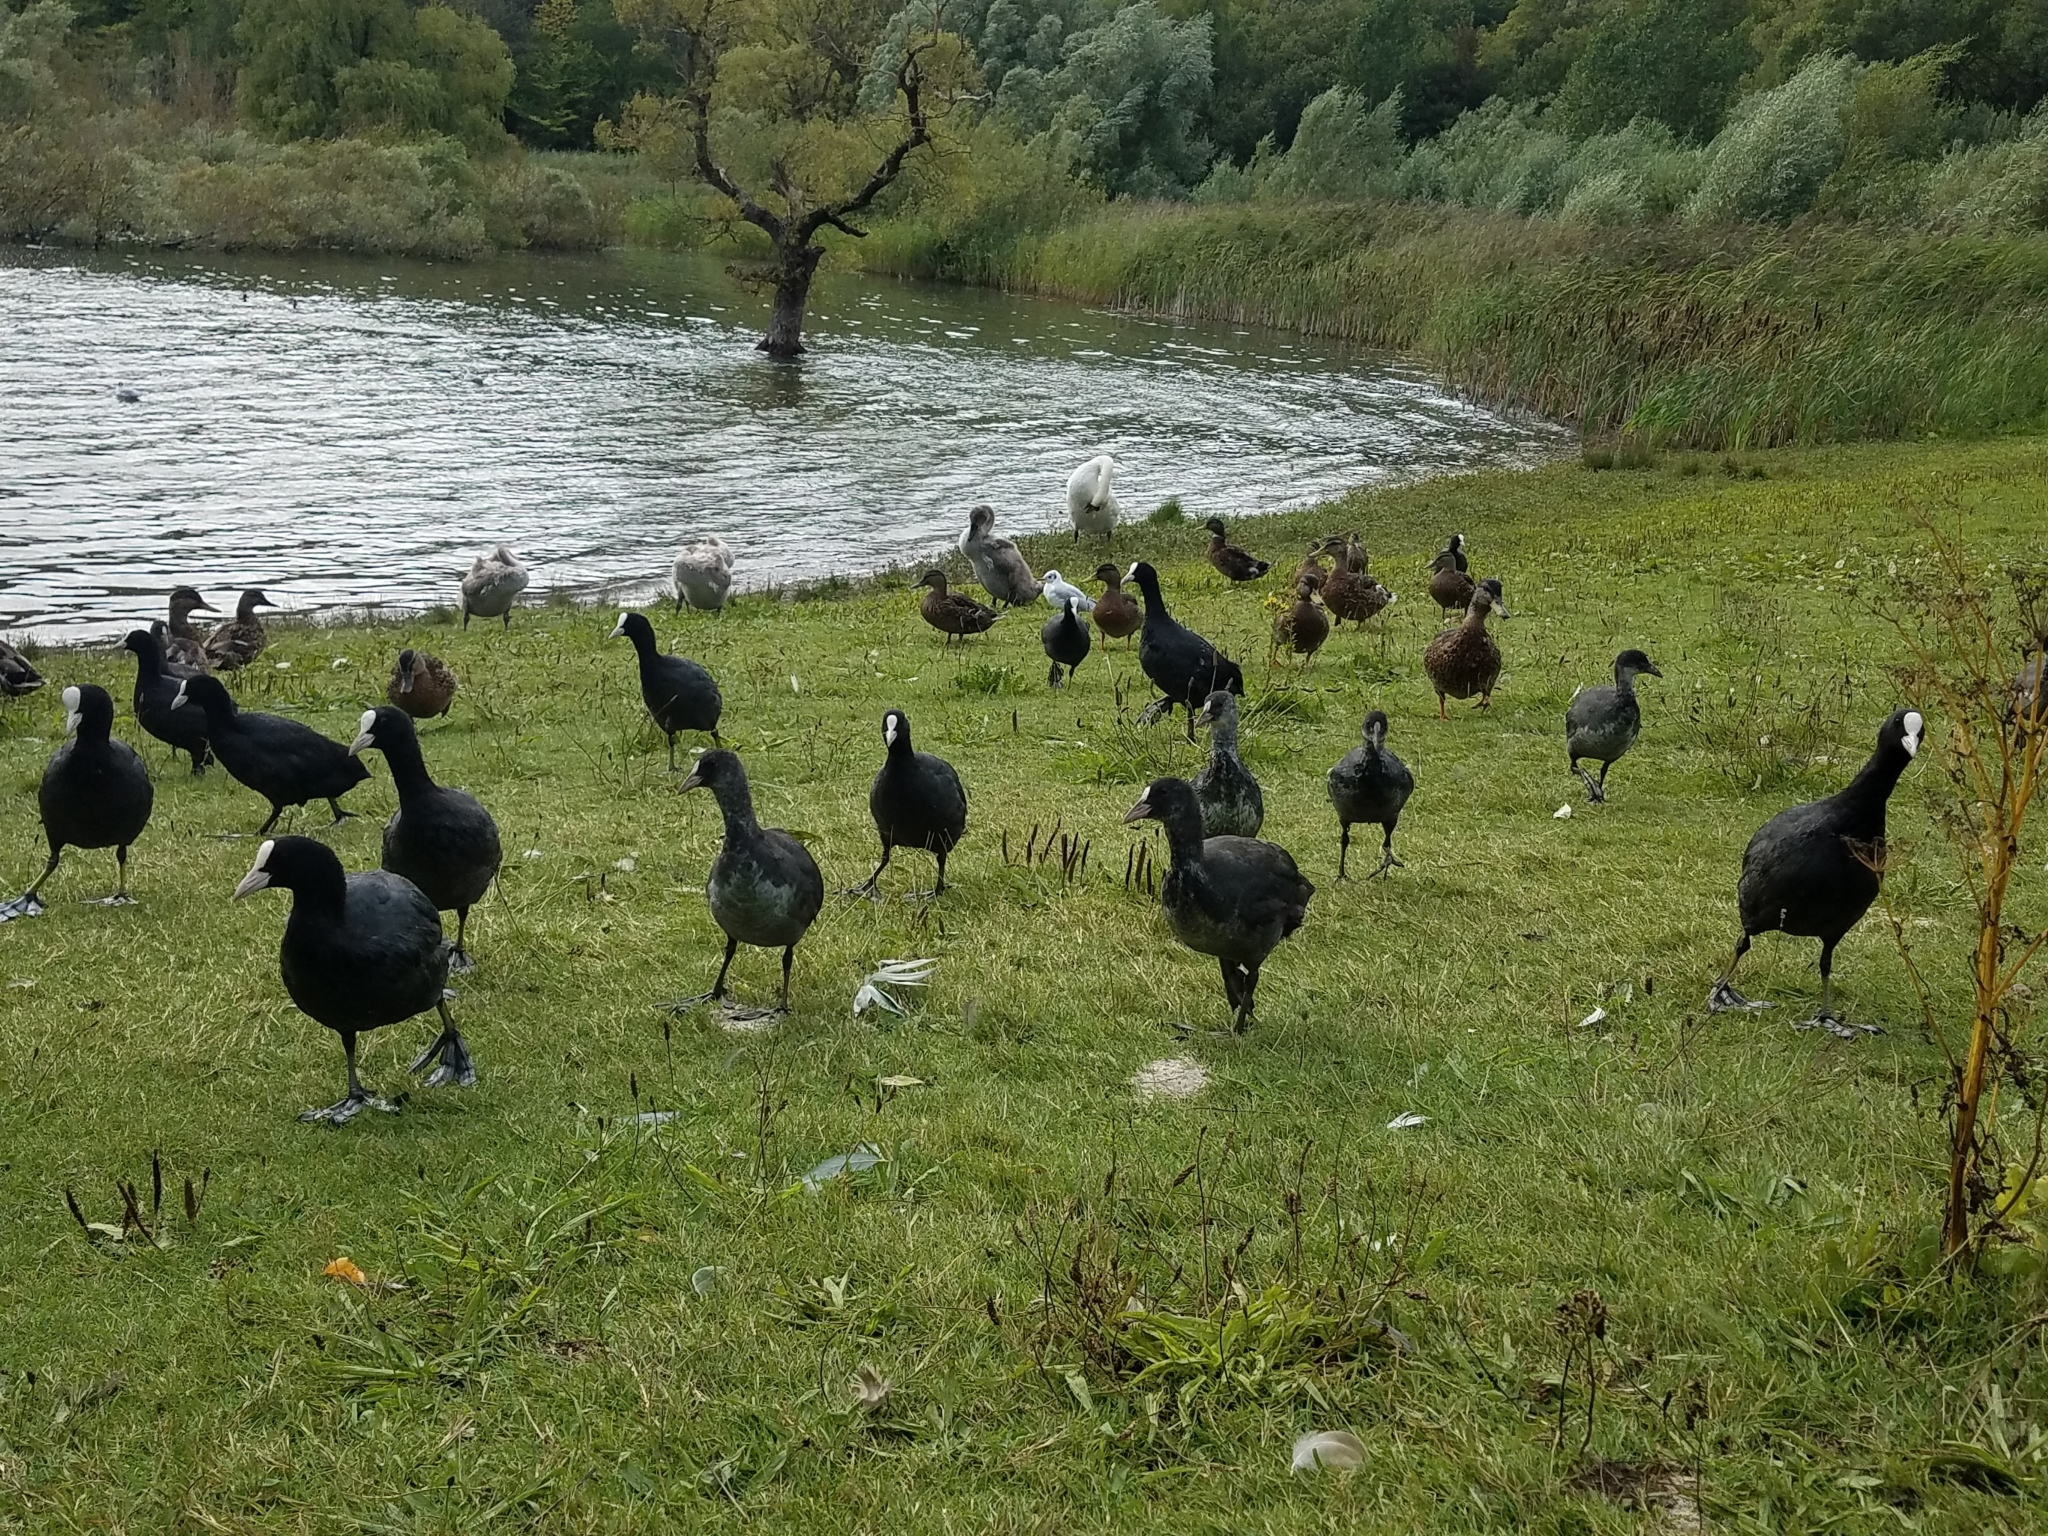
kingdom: Animalia
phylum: Chordata
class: Aves
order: Gruiformes
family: Rallidae
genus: Fulica
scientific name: Fulica atra
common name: Eurasian coot
